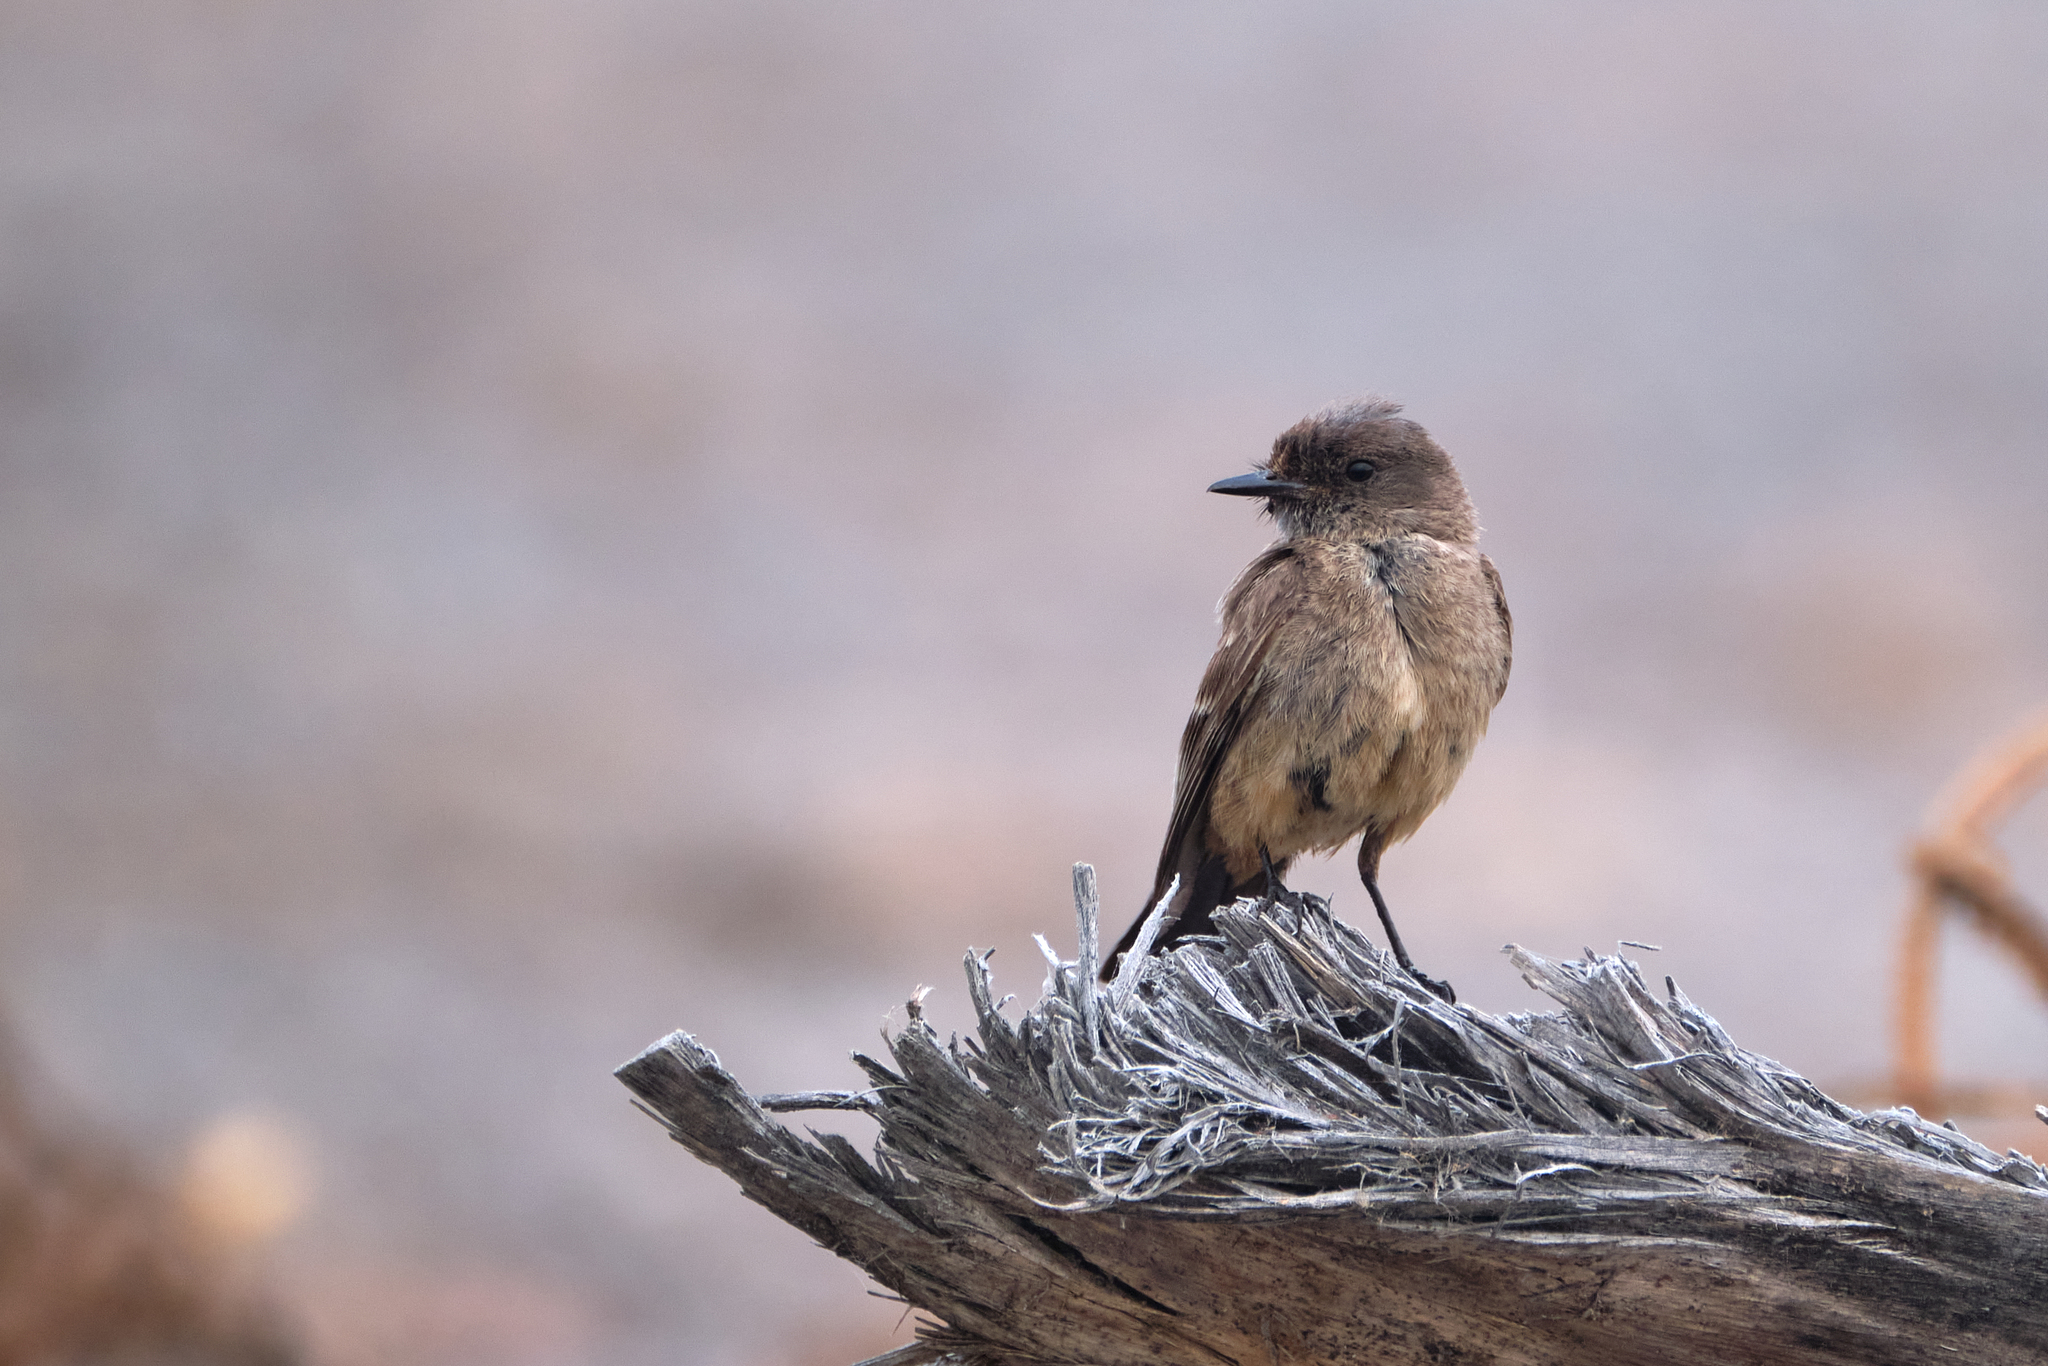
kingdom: Animalia
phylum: Chordata
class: Aves
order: Passeriformes
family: Tyrannidae
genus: Sayornis
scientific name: Sayornis saya
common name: Say's phoebe
